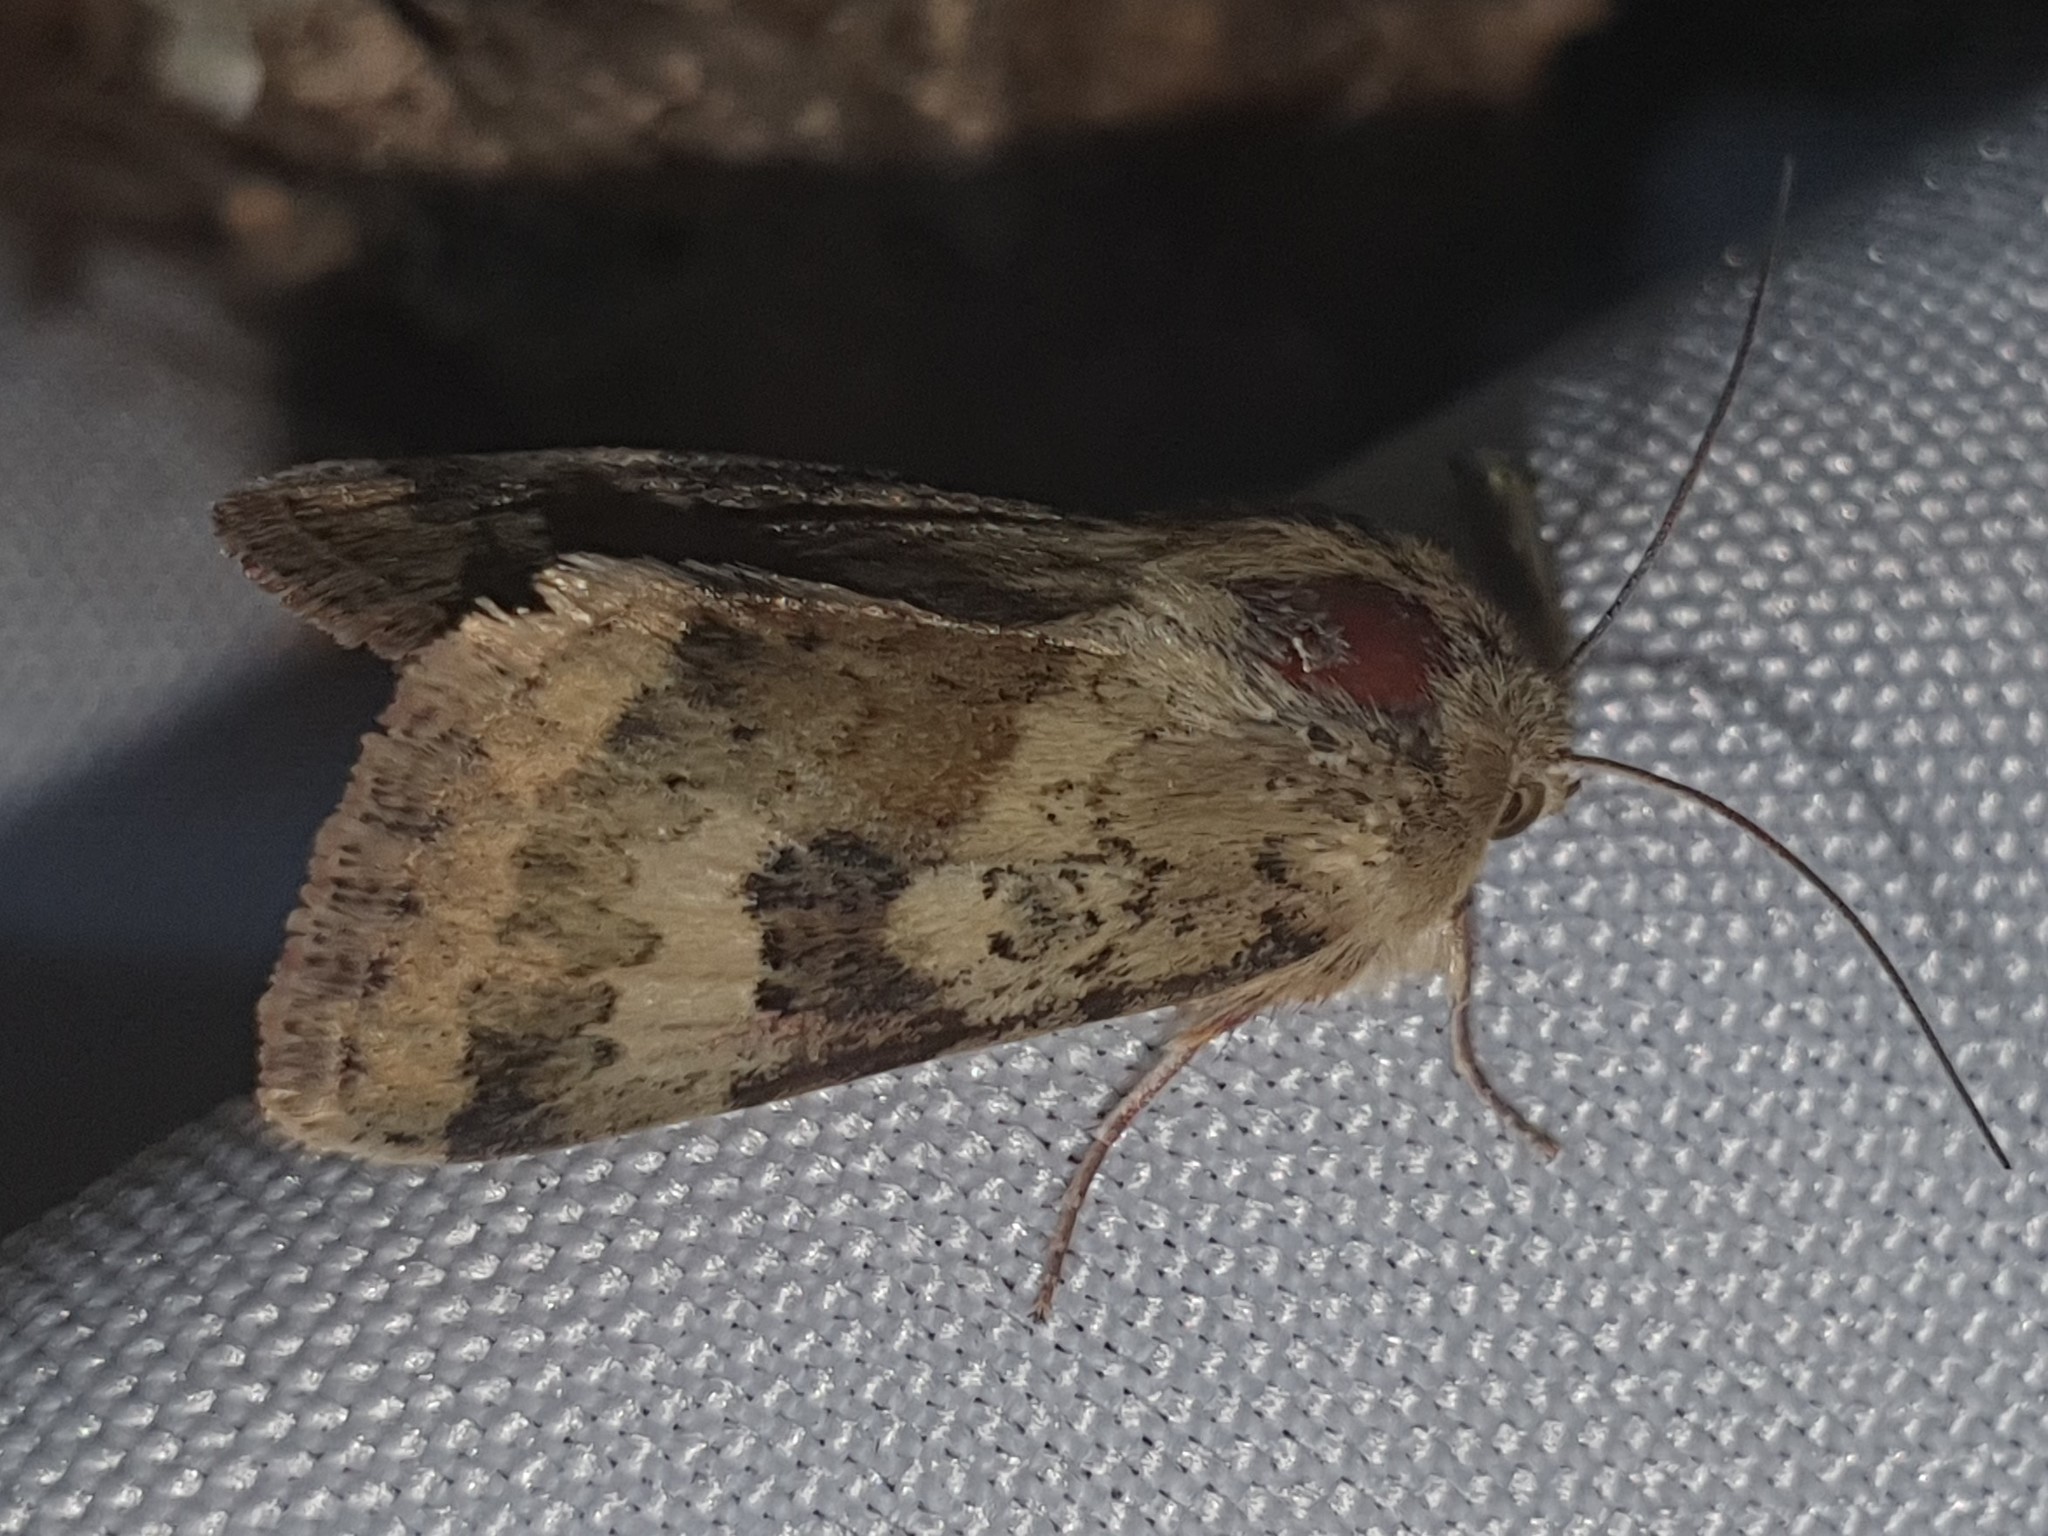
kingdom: Animalia
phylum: Arthropoda
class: Insecta
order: Lepidoptera
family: Noctuidae
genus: Heliothis
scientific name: Heliothis viriplaca
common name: Marbled clover
